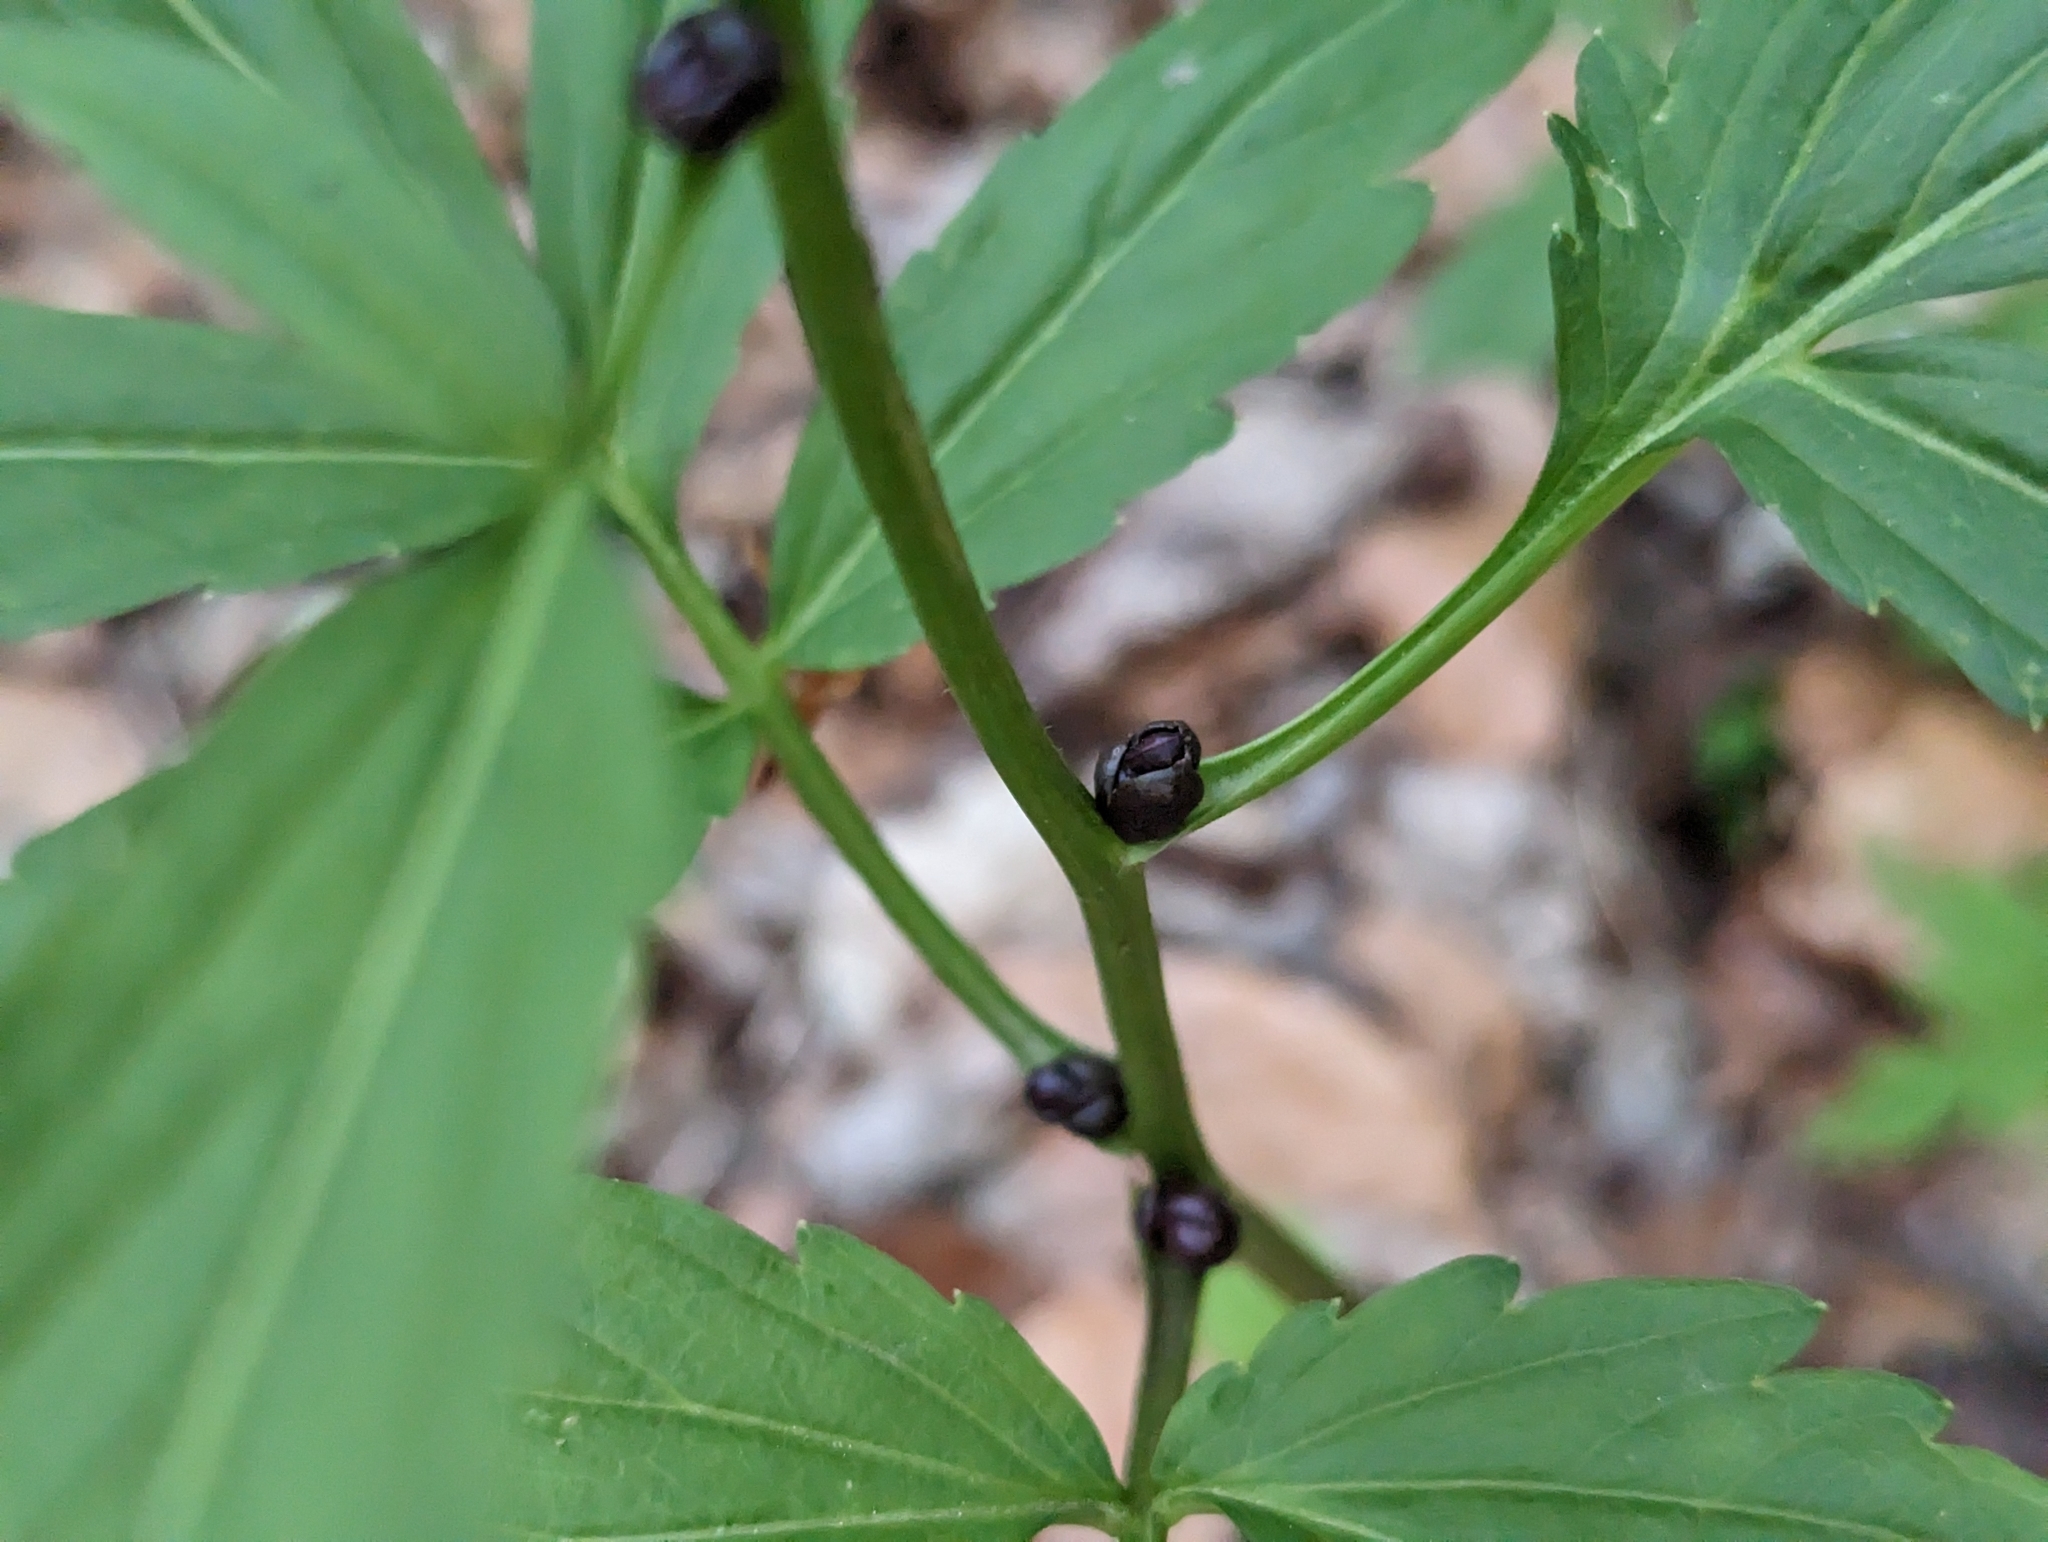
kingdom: Plantae
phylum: Tracheophyta
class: Magnoliopsida
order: Brassicales
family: Brassicaceae
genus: Cardamine
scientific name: Cardamine bulbifera
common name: Coralroot bittercress
